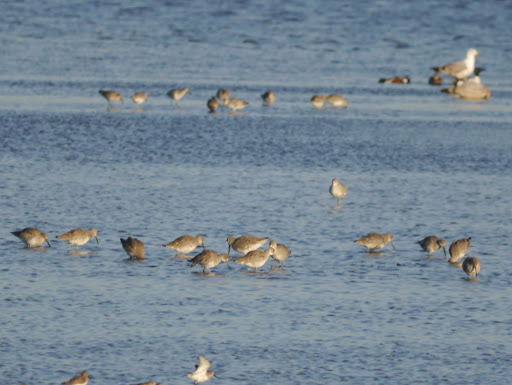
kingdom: Animalia
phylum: Chordata
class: Aves
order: Charadriiformes
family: Scolopacidae
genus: Tringa
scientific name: Tringa semipalmata
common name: Willet
